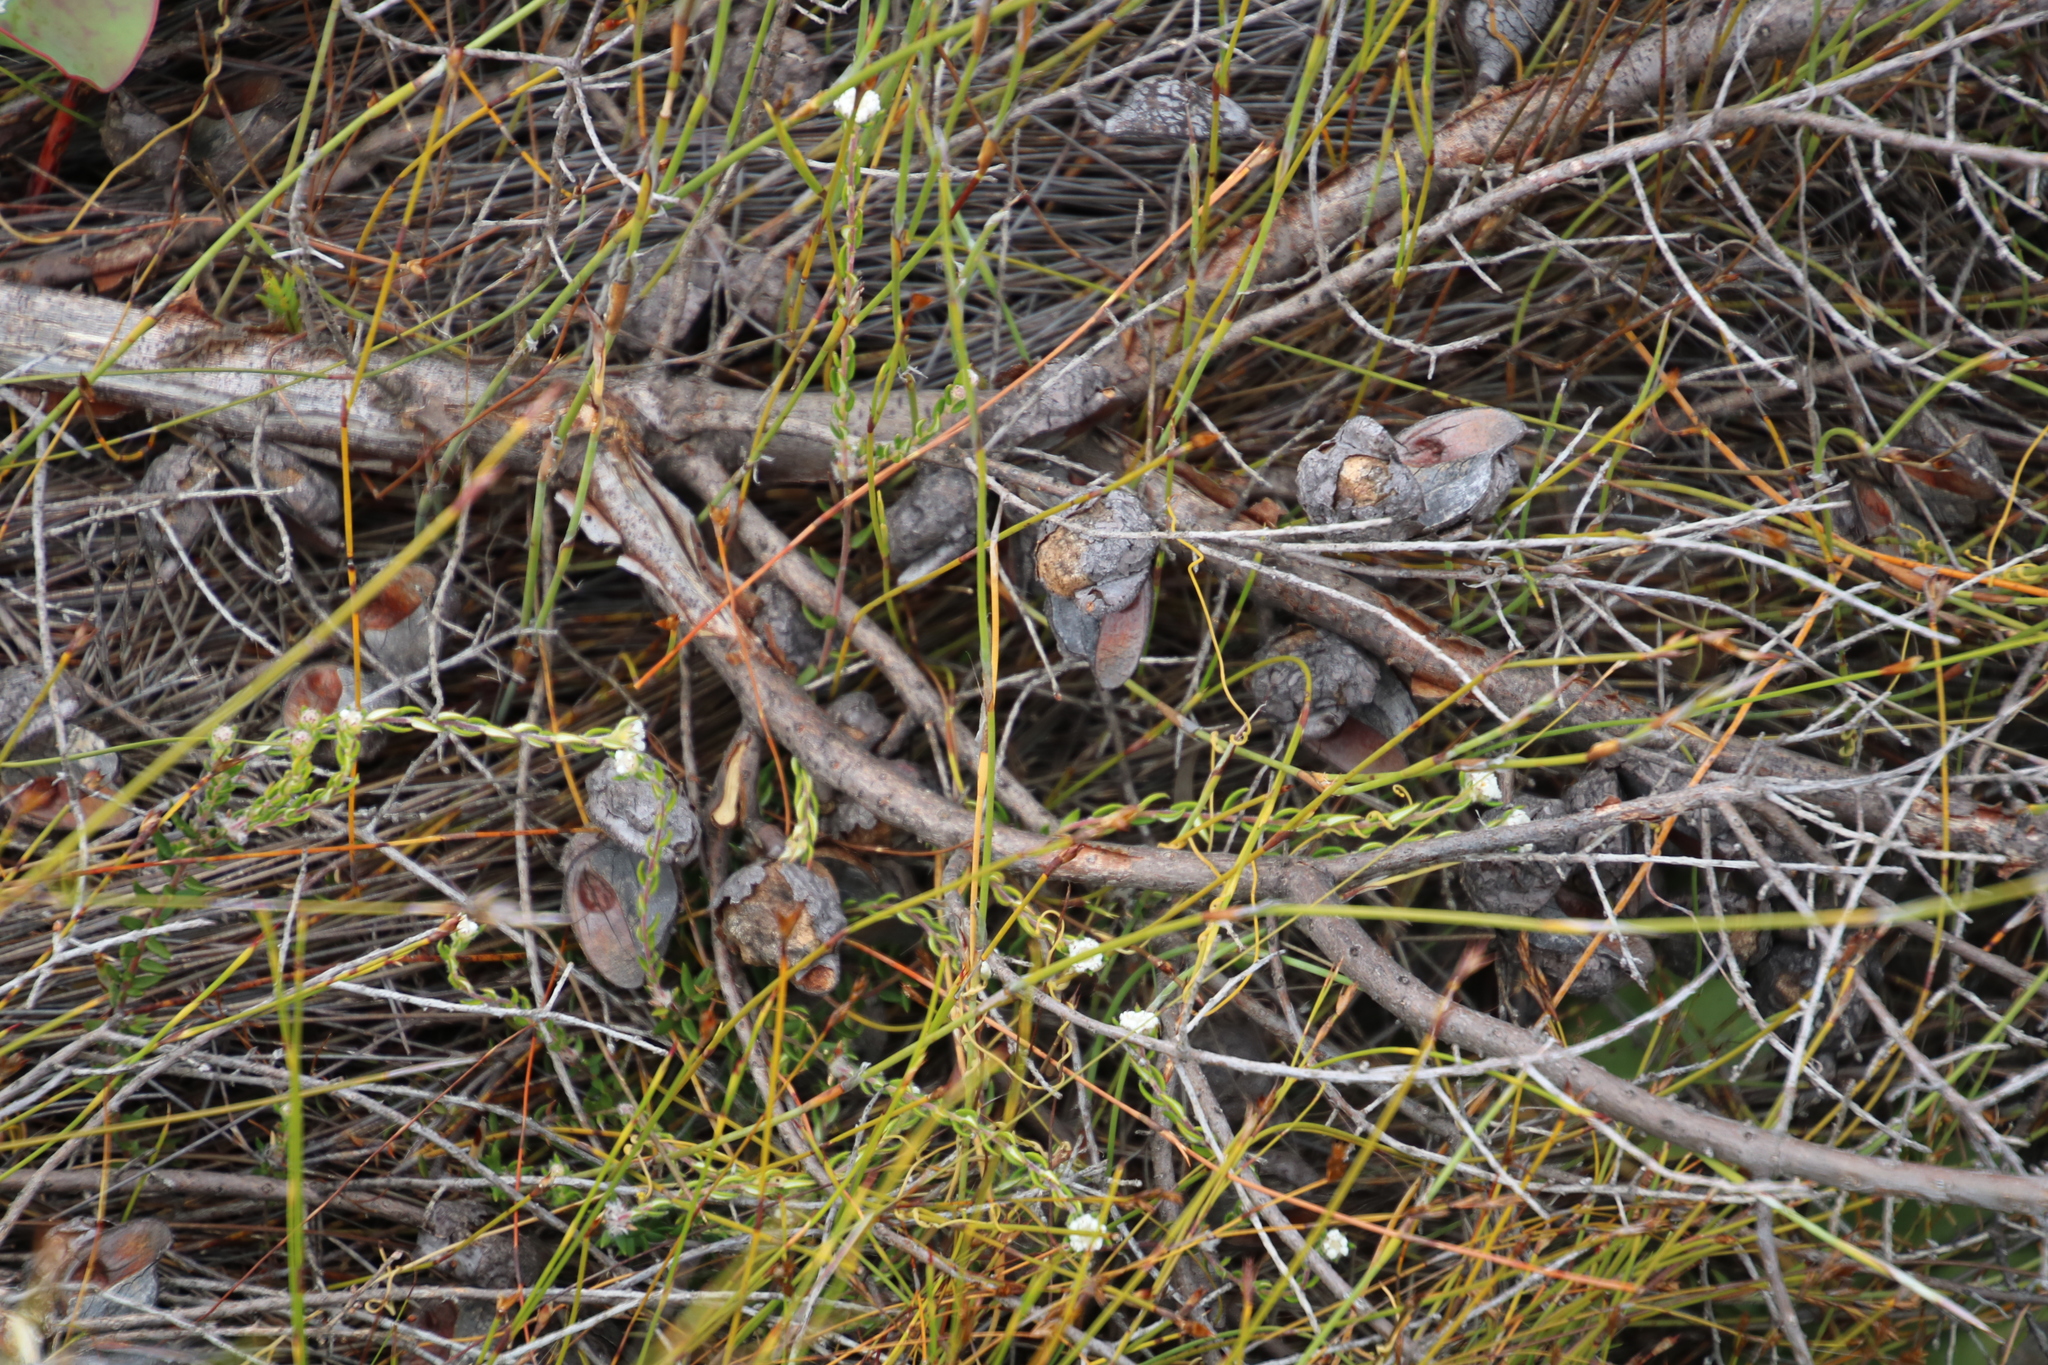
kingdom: Plantae
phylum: Tracheophyta
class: Magnoliopsida
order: Proteales
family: Proteaceae
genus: Hakea
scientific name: Hakea sericea
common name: Needle bush
